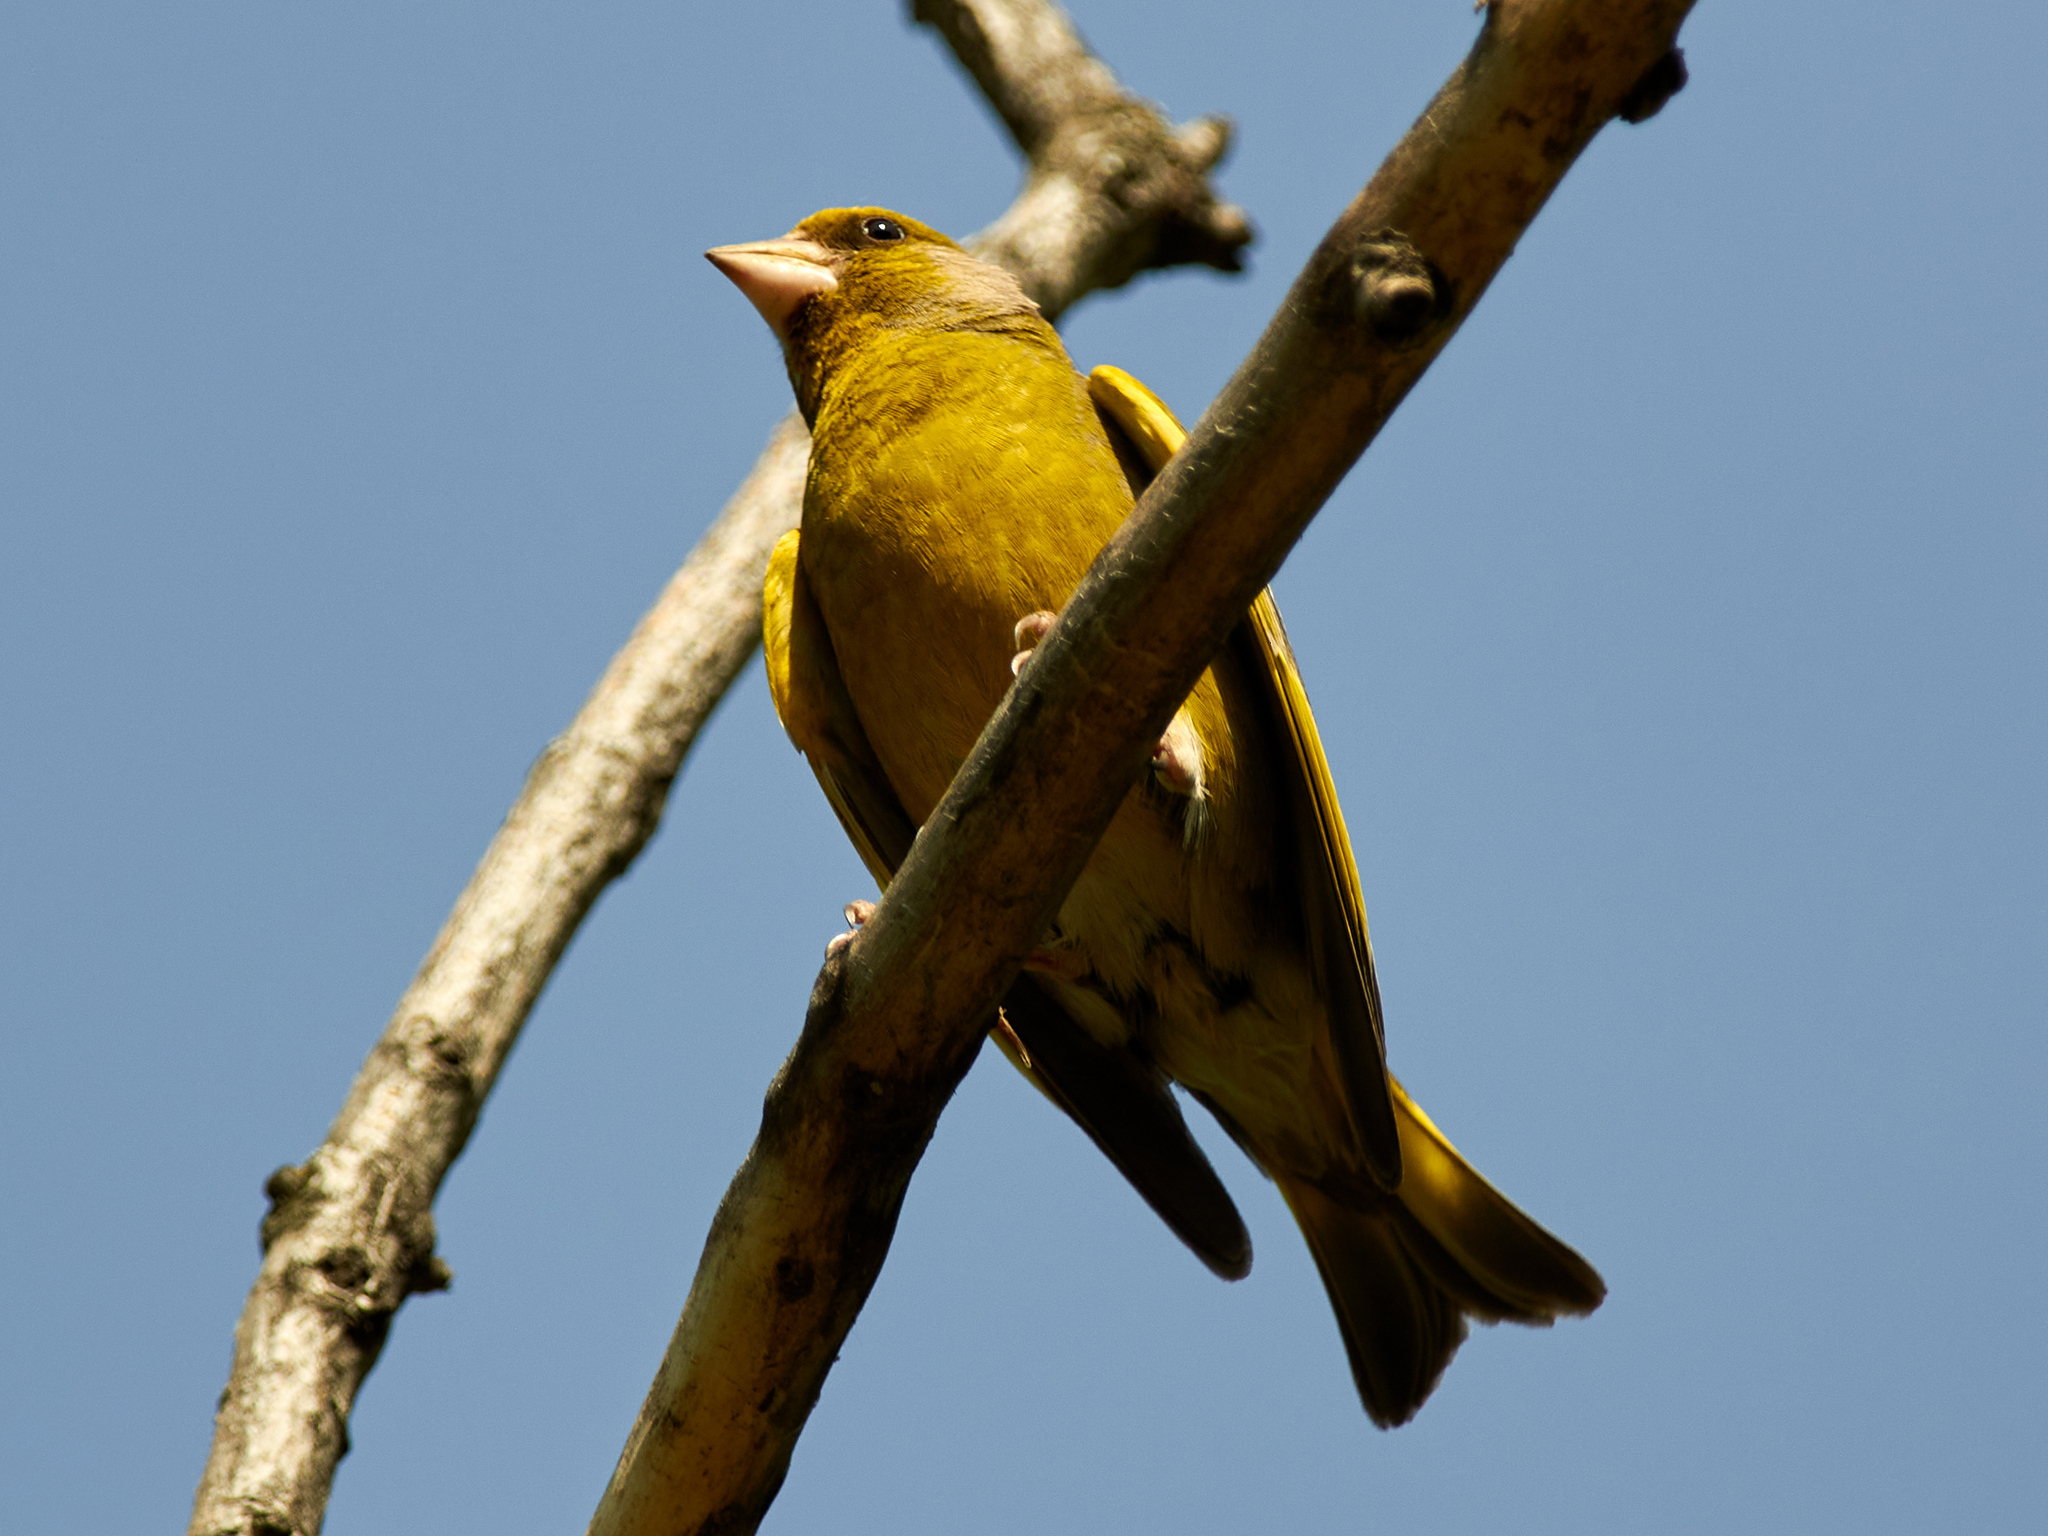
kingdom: Plantae
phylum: Tracheophyta
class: Liliopsida
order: Poales
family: Poaceae
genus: Chloris
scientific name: Chloris chloris
